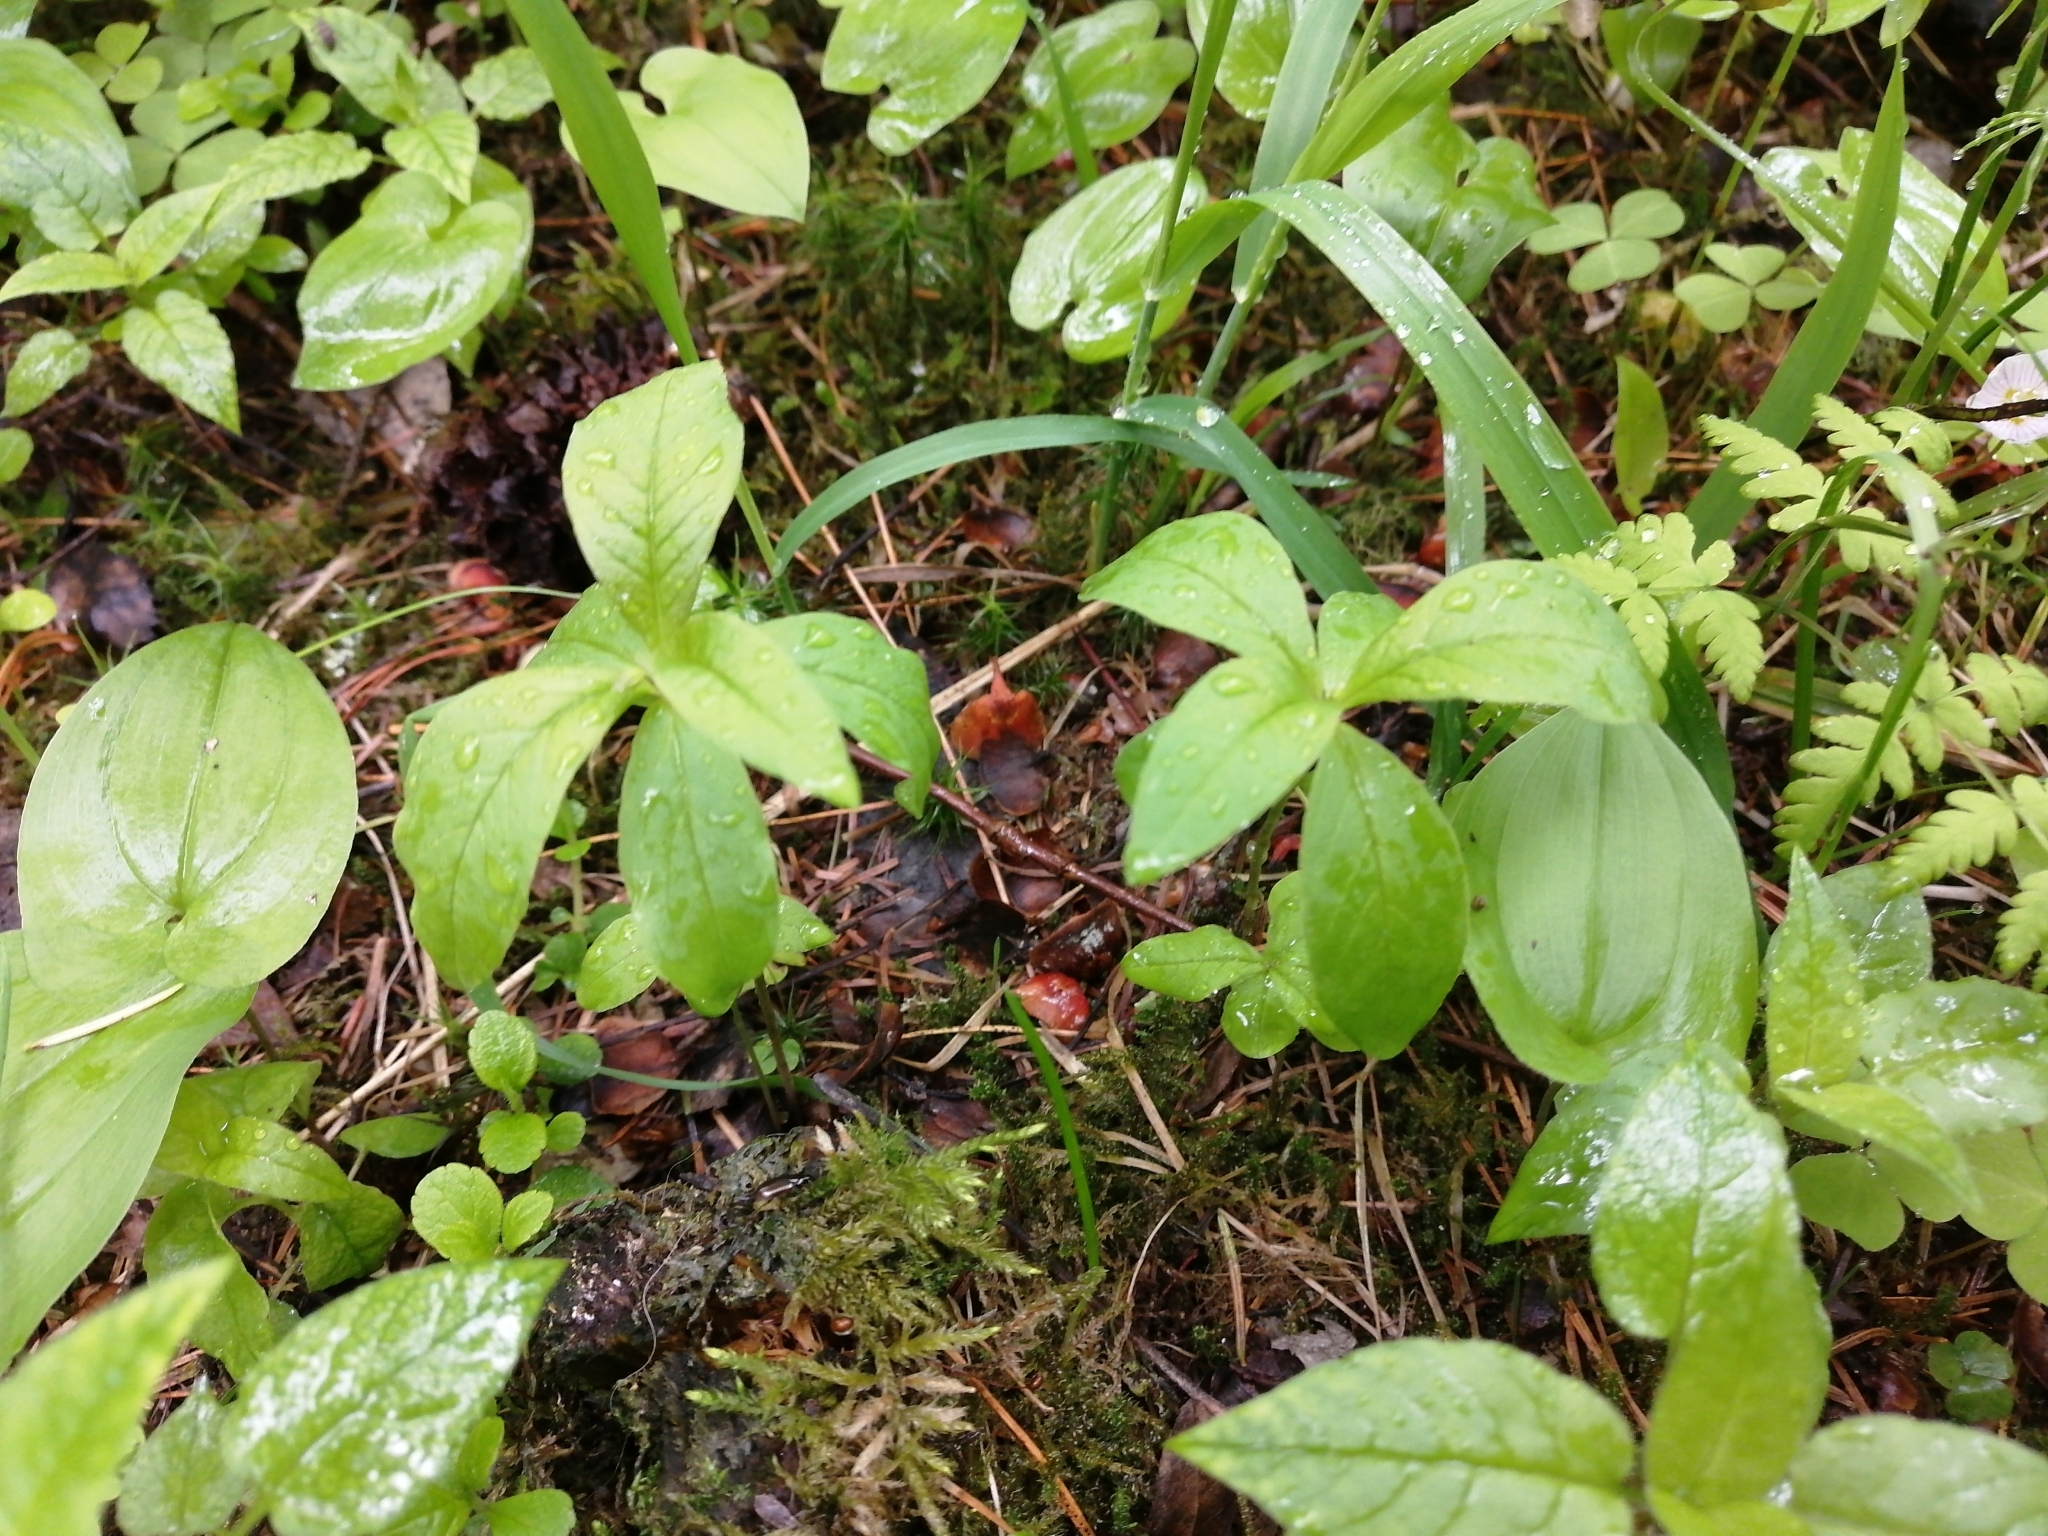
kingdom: Plantae
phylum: Tracheophyta
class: Magnoliopsida
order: Ericales
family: Primulaceae
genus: Lysimachia
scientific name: Lysimachia europaea
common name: Arctic starflower
